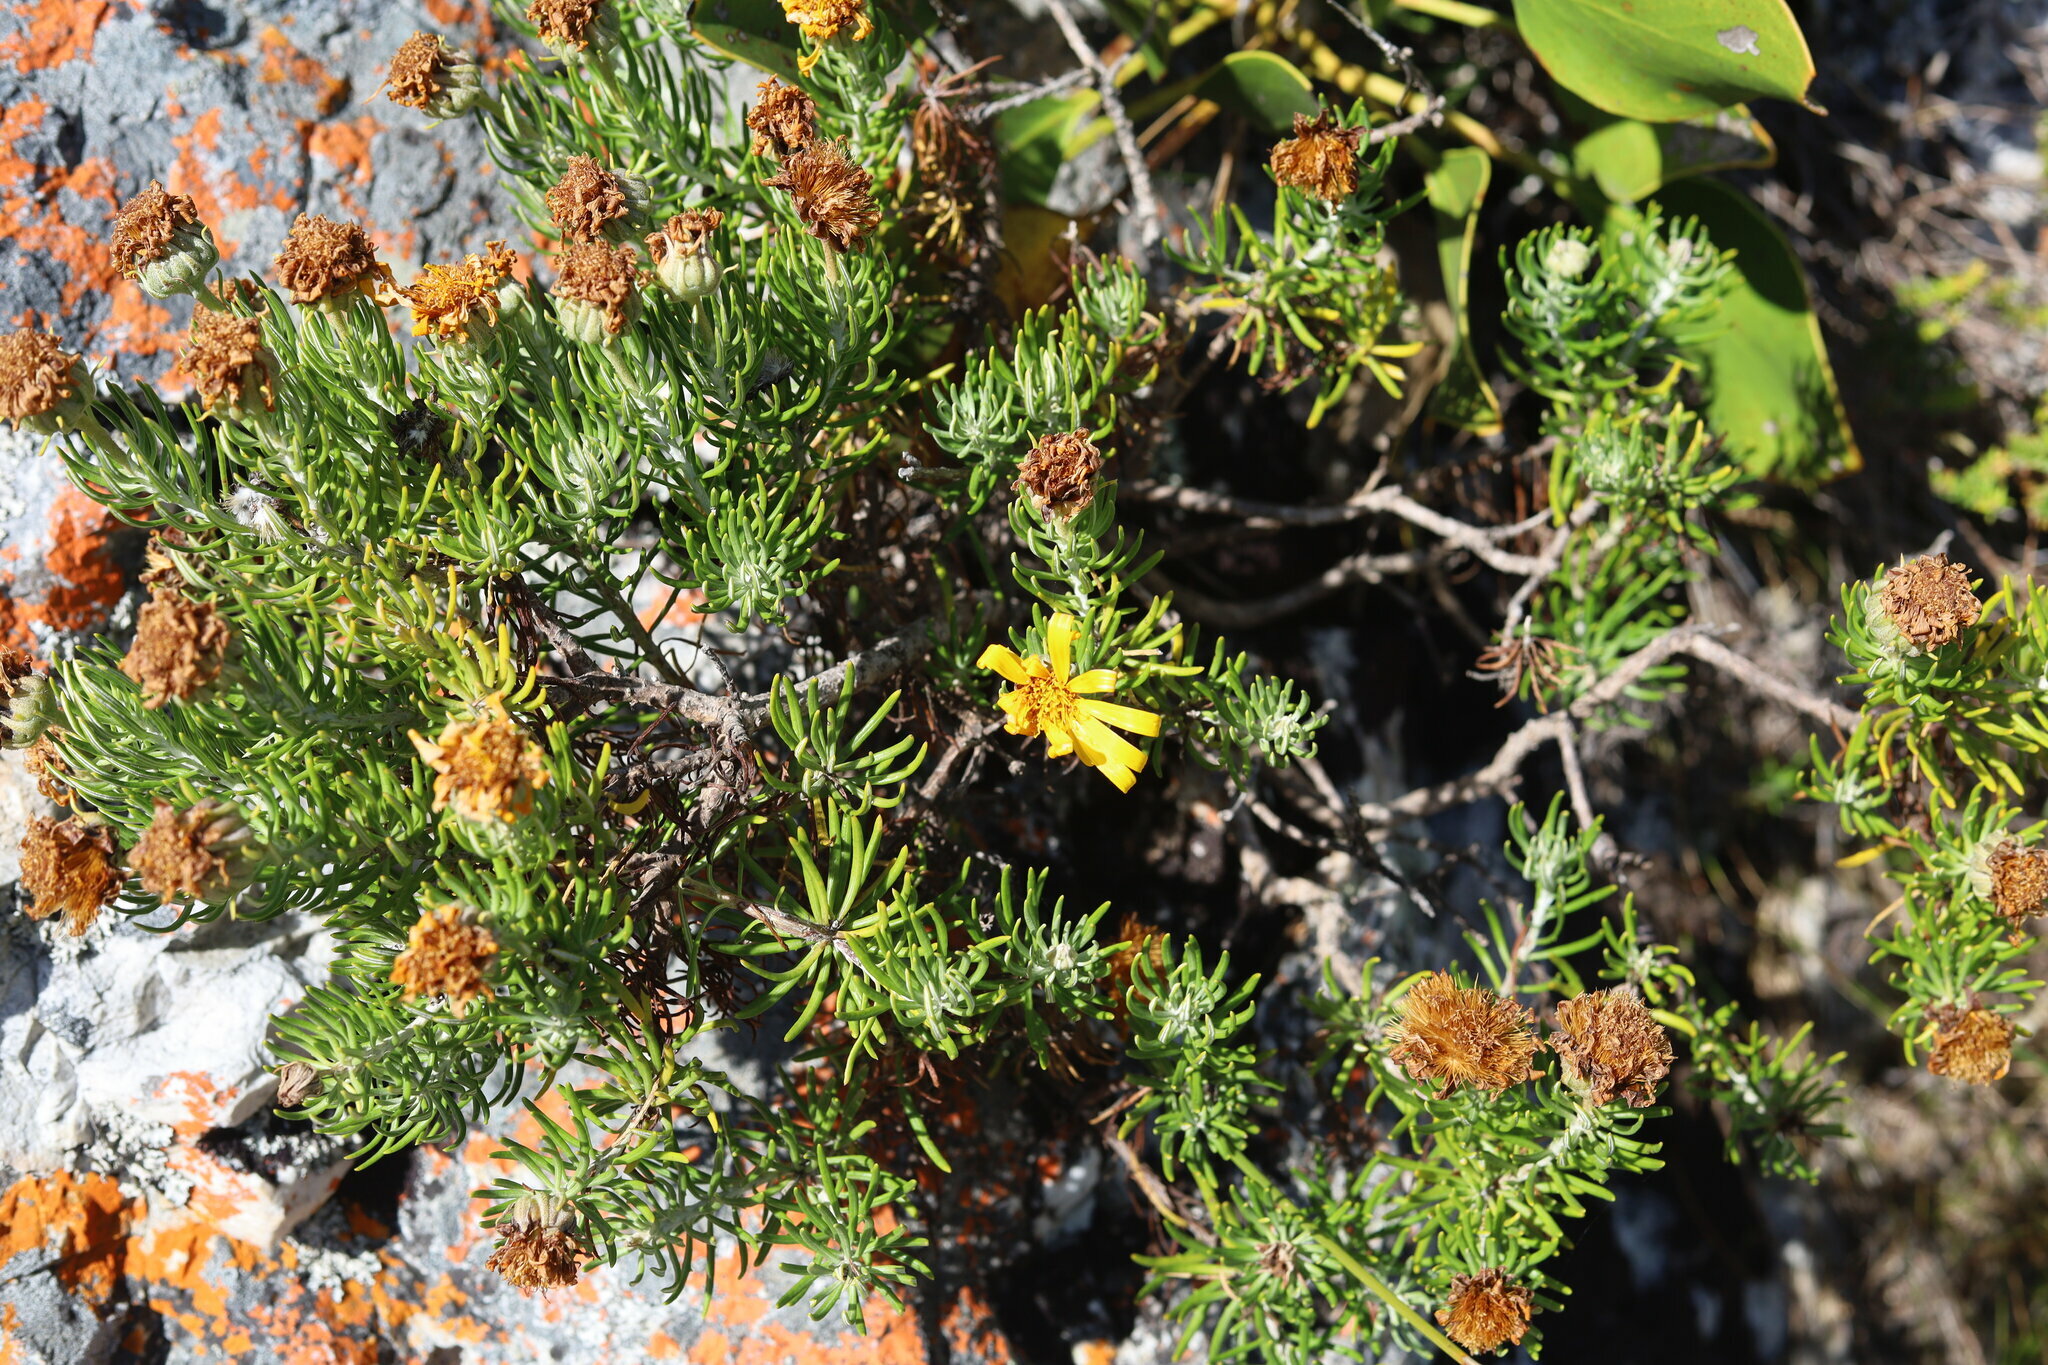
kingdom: Plantae
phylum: Tracheophyta
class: Magnoliopsida
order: Asterales
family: Asteraceae
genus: Heterolepis
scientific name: Heterolepis aliena
